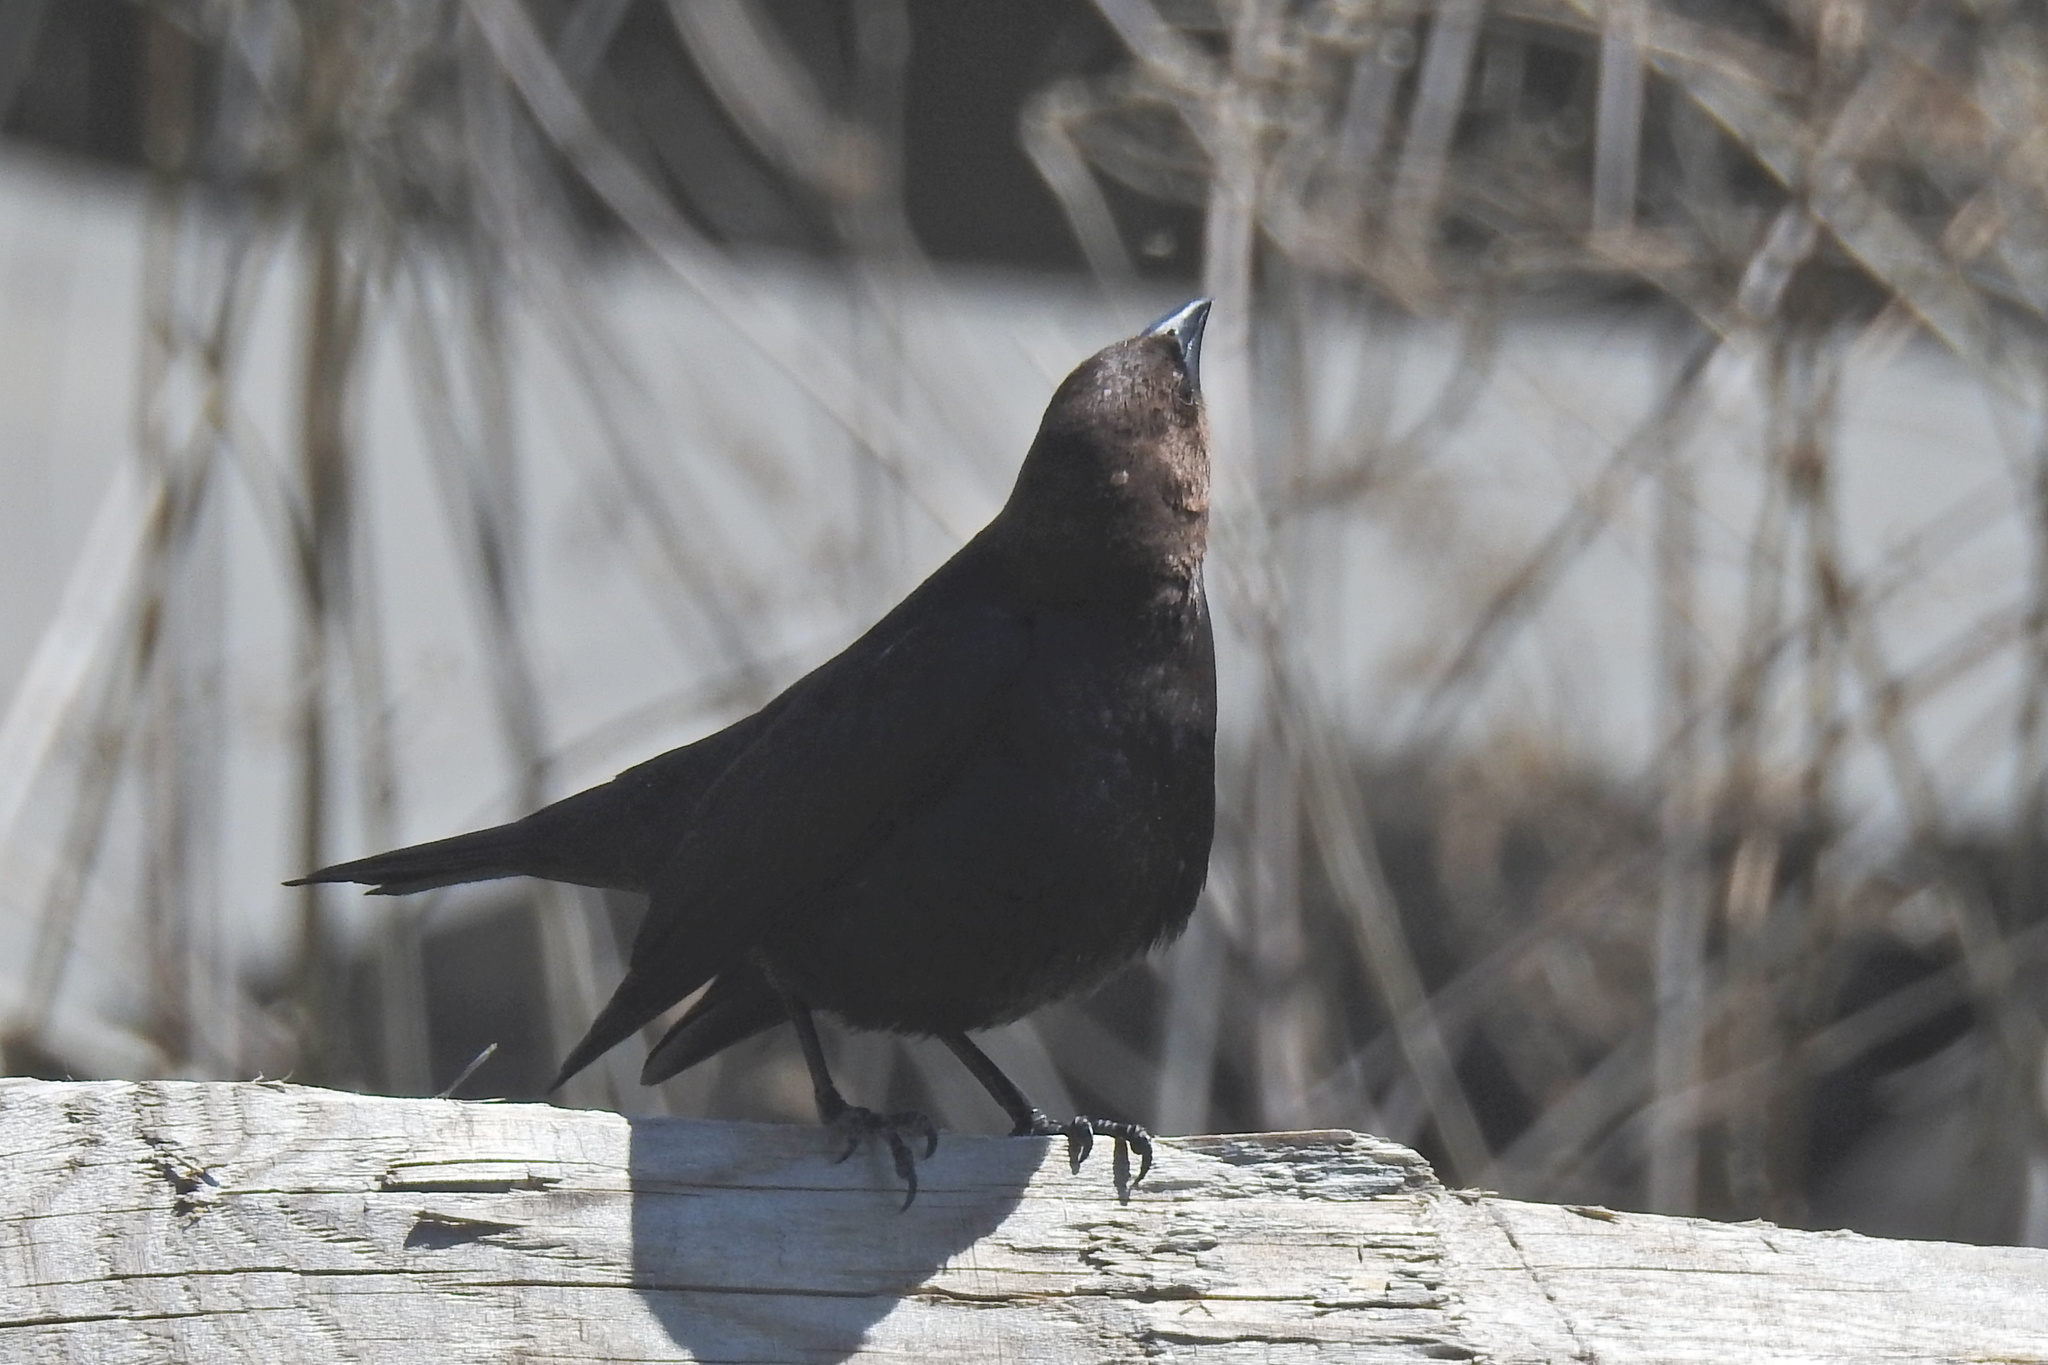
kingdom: Animalia
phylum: Chordata
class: Aves
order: Passeriformes
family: Icteridae
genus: Molothrus
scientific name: Molothrus ater
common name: Brown-headed cowbird
